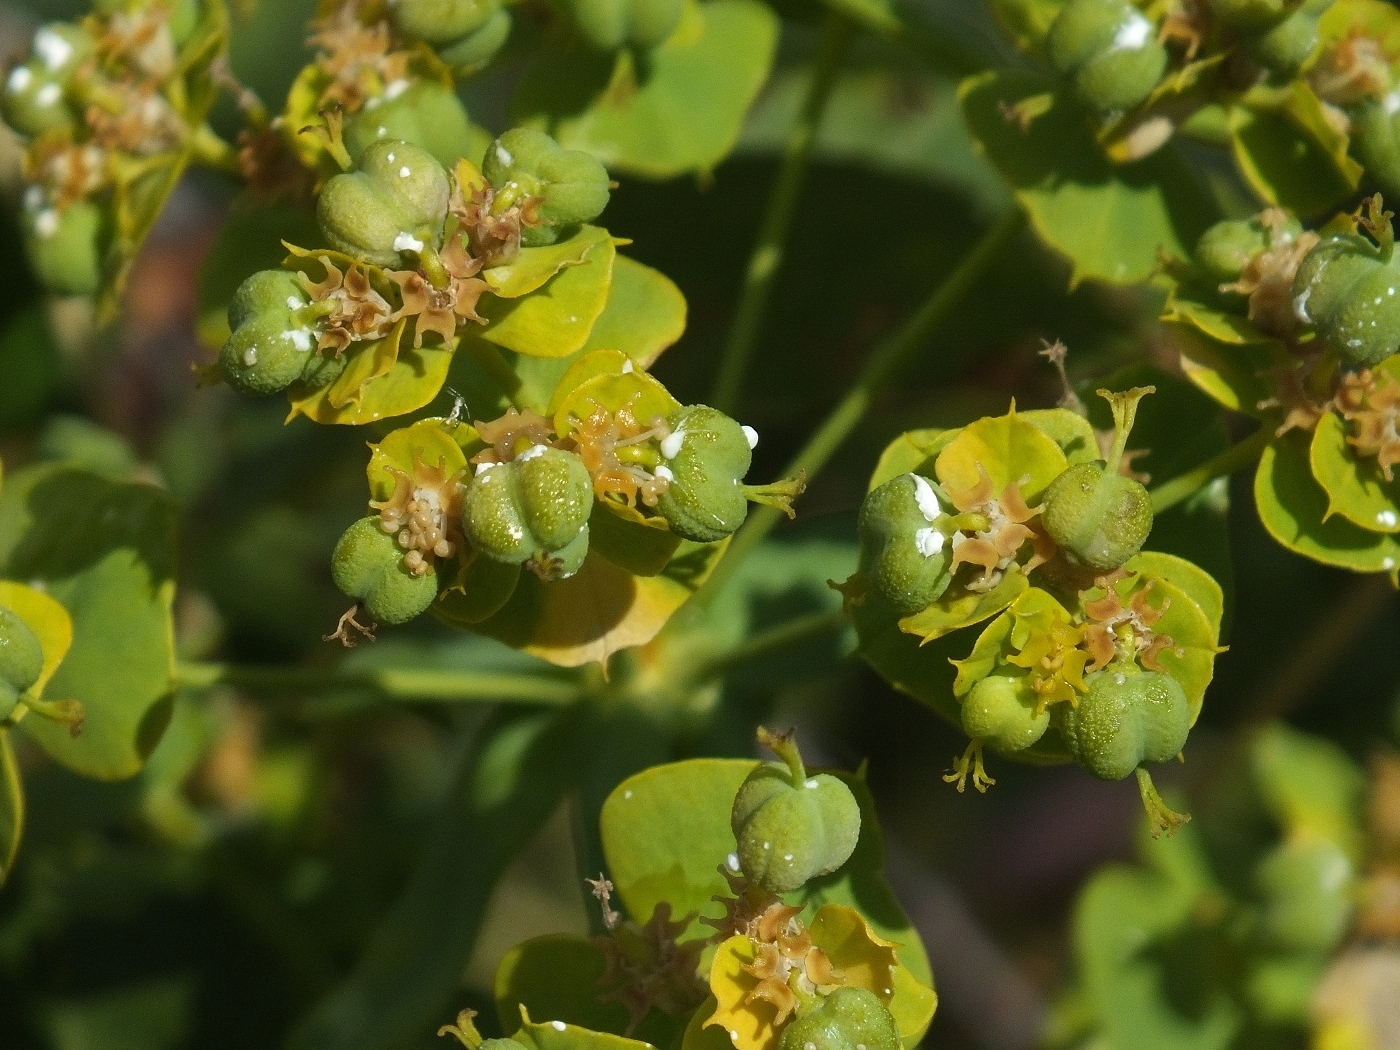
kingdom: Plantae
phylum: Tracheophyta
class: Magnoliopsida
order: Malpighiales
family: Euphorbiaceae
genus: Euphorbia
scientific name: Euphorbia virgata
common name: Leafy spurge
